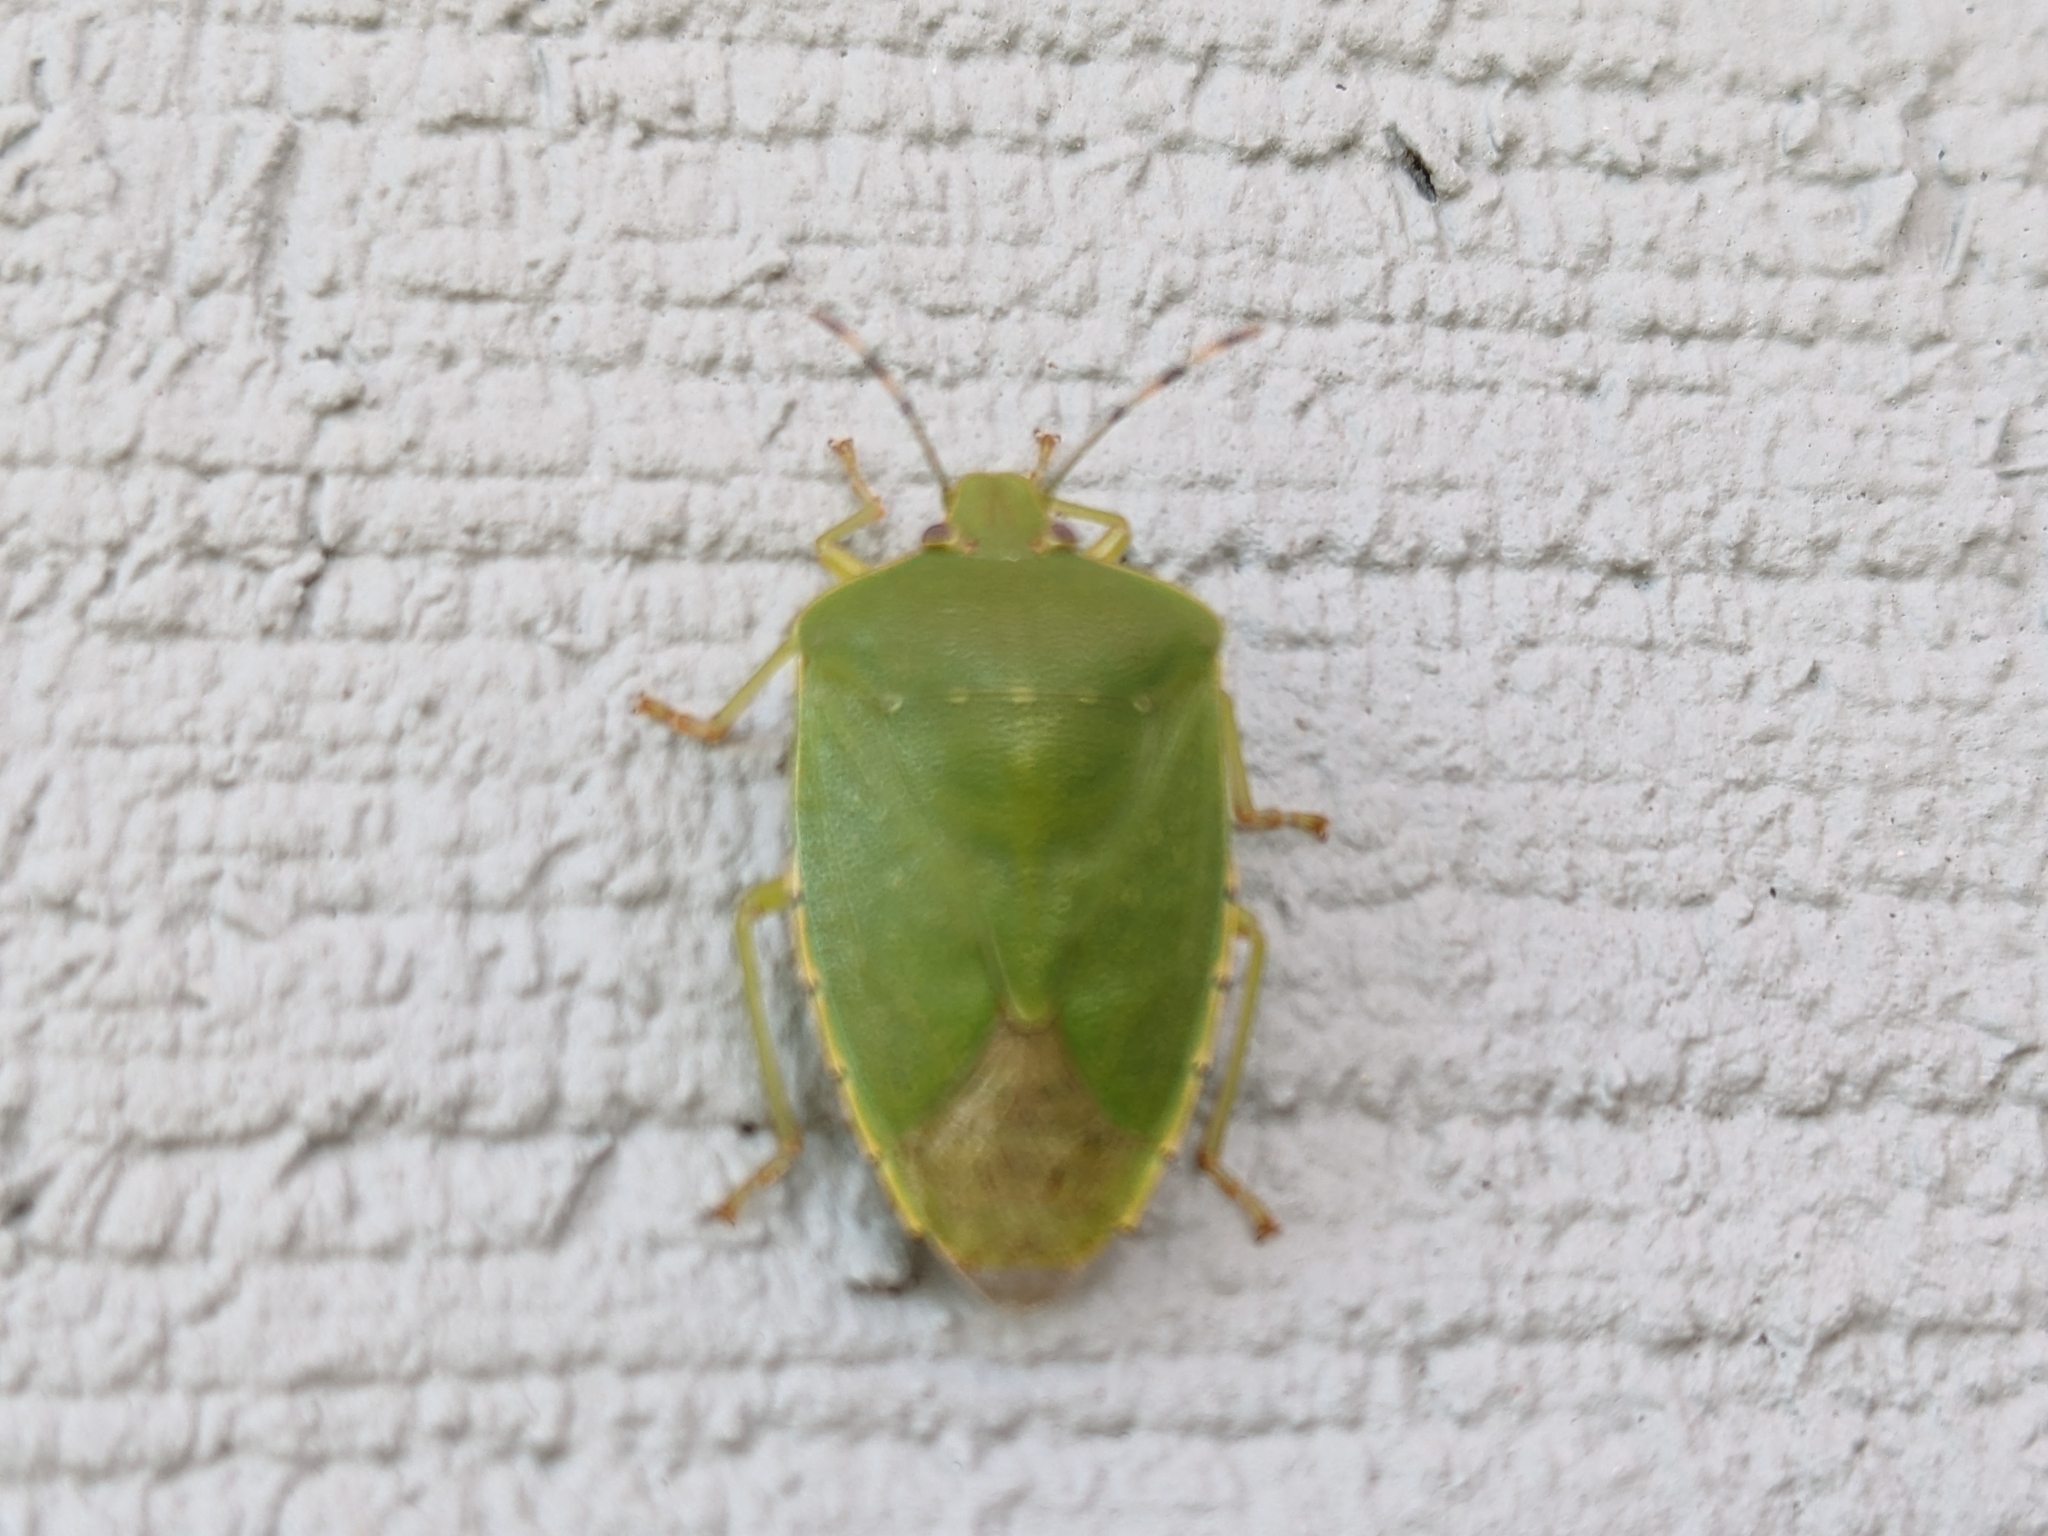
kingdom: Animalia
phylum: Arthropoda
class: Insecta
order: Hemiptera
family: Pentatomidae
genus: Chinavia
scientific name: Chinavia hilaris
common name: Green stink bug
